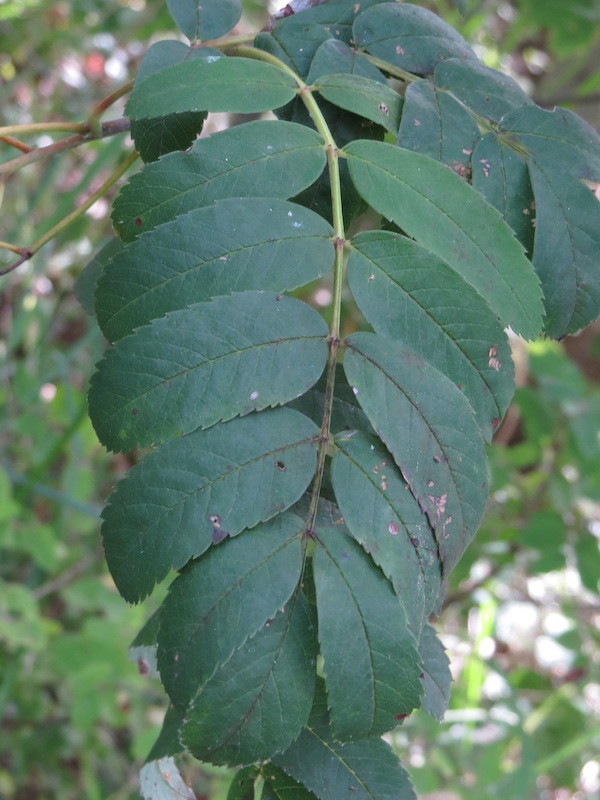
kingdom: Plantae
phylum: Tracheophyta
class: Magnoliopsida
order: Rosales
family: Rosaceae
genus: Sorbus
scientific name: Sorbus decora
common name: Northern mountain-ash
